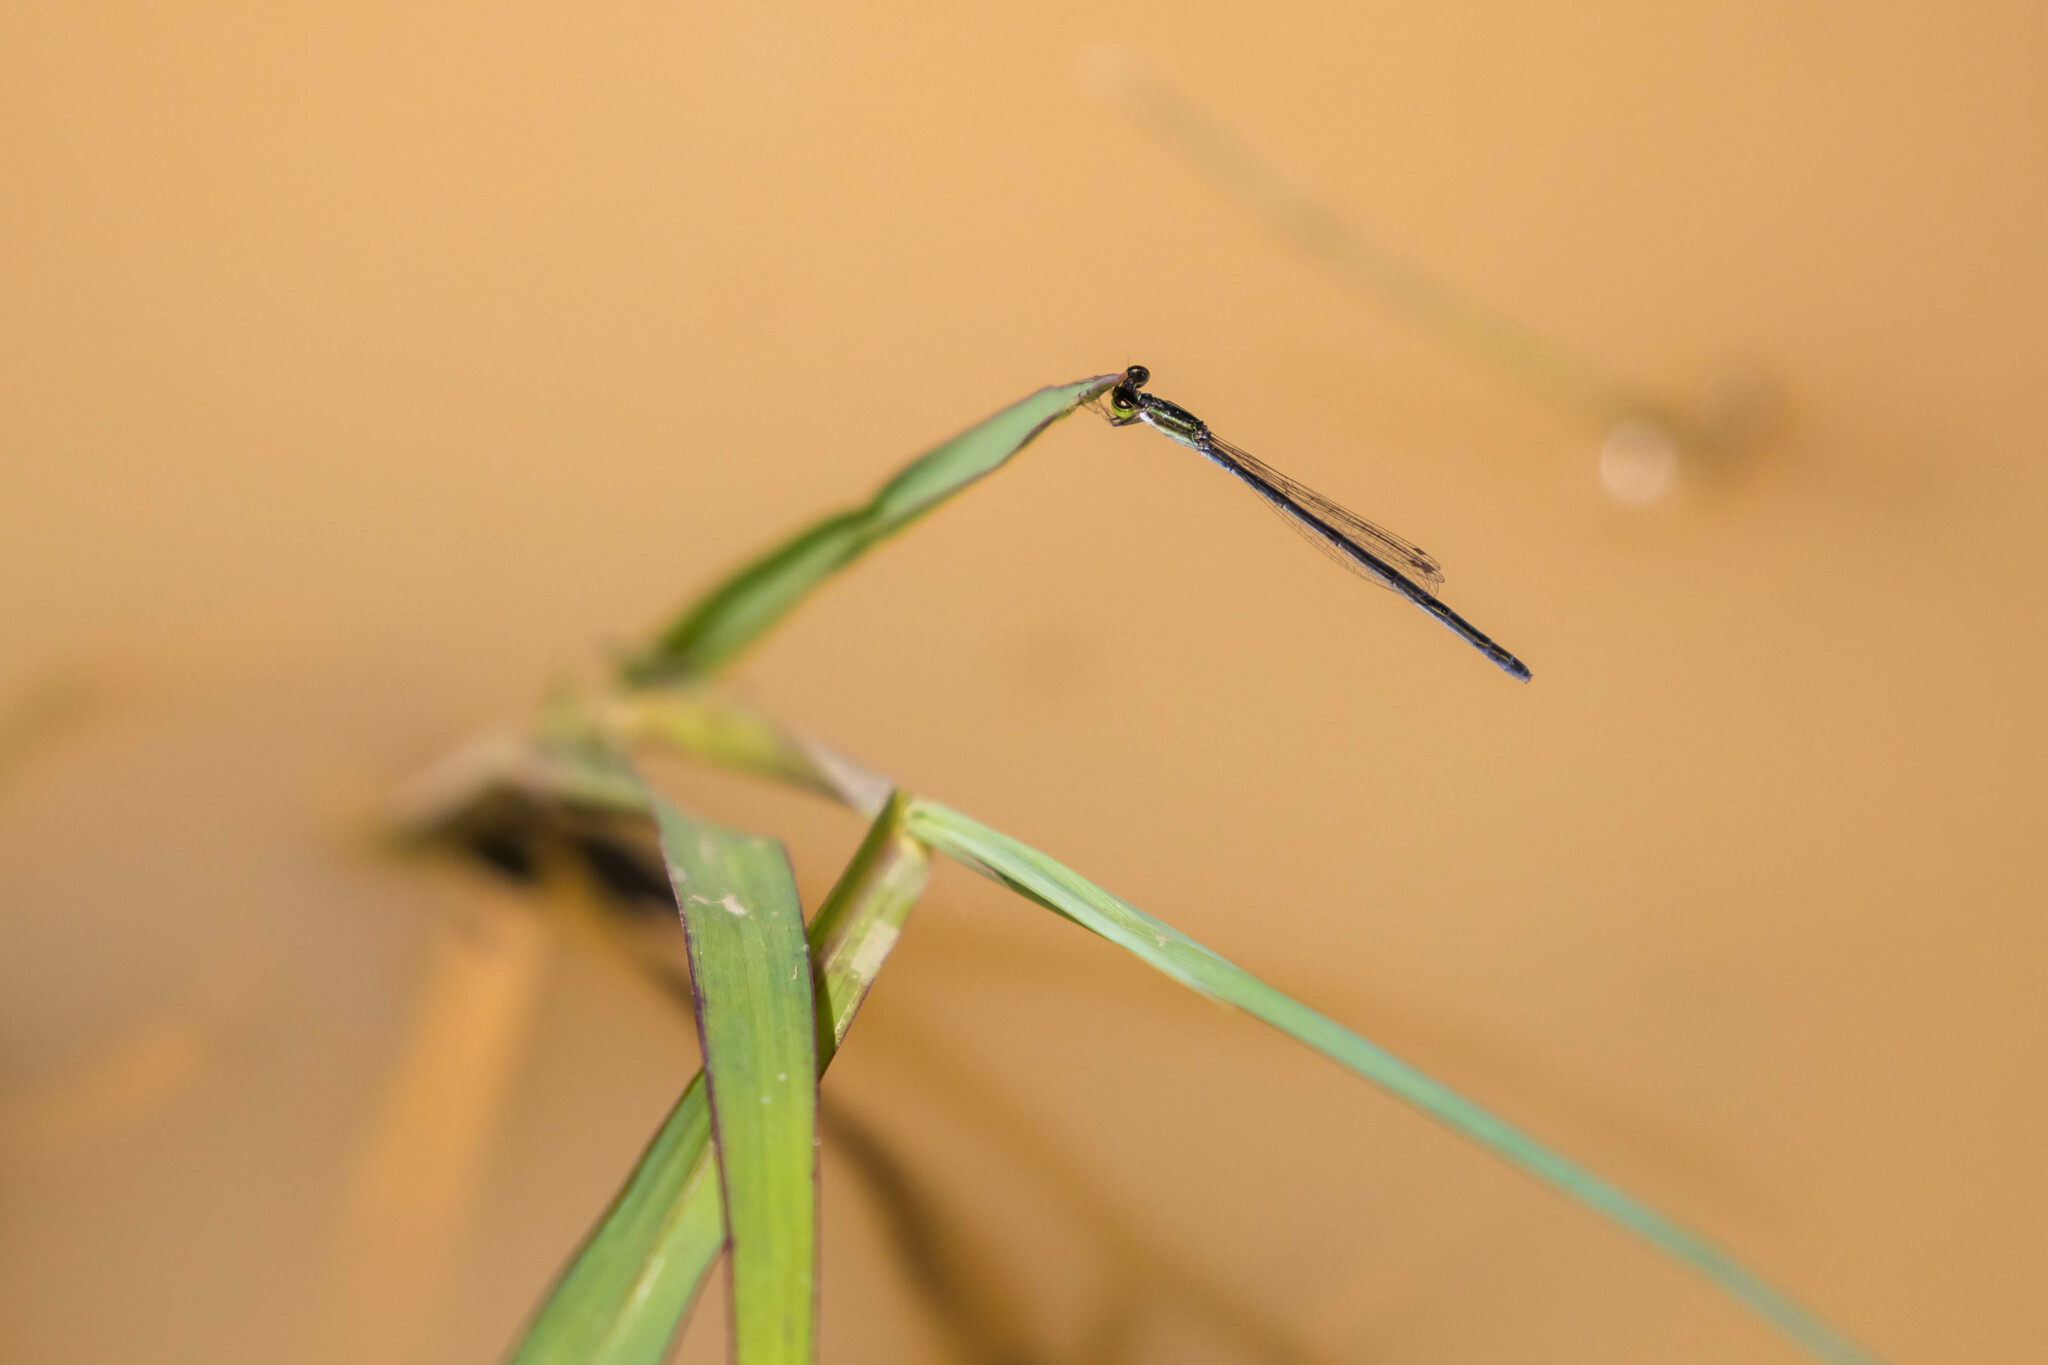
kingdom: Animalia
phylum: Arthropoda
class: Insecta
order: Odonata
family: Coenagrionidae
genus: Ischnura
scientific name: Ischnura hastata
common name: Citrine forktail
